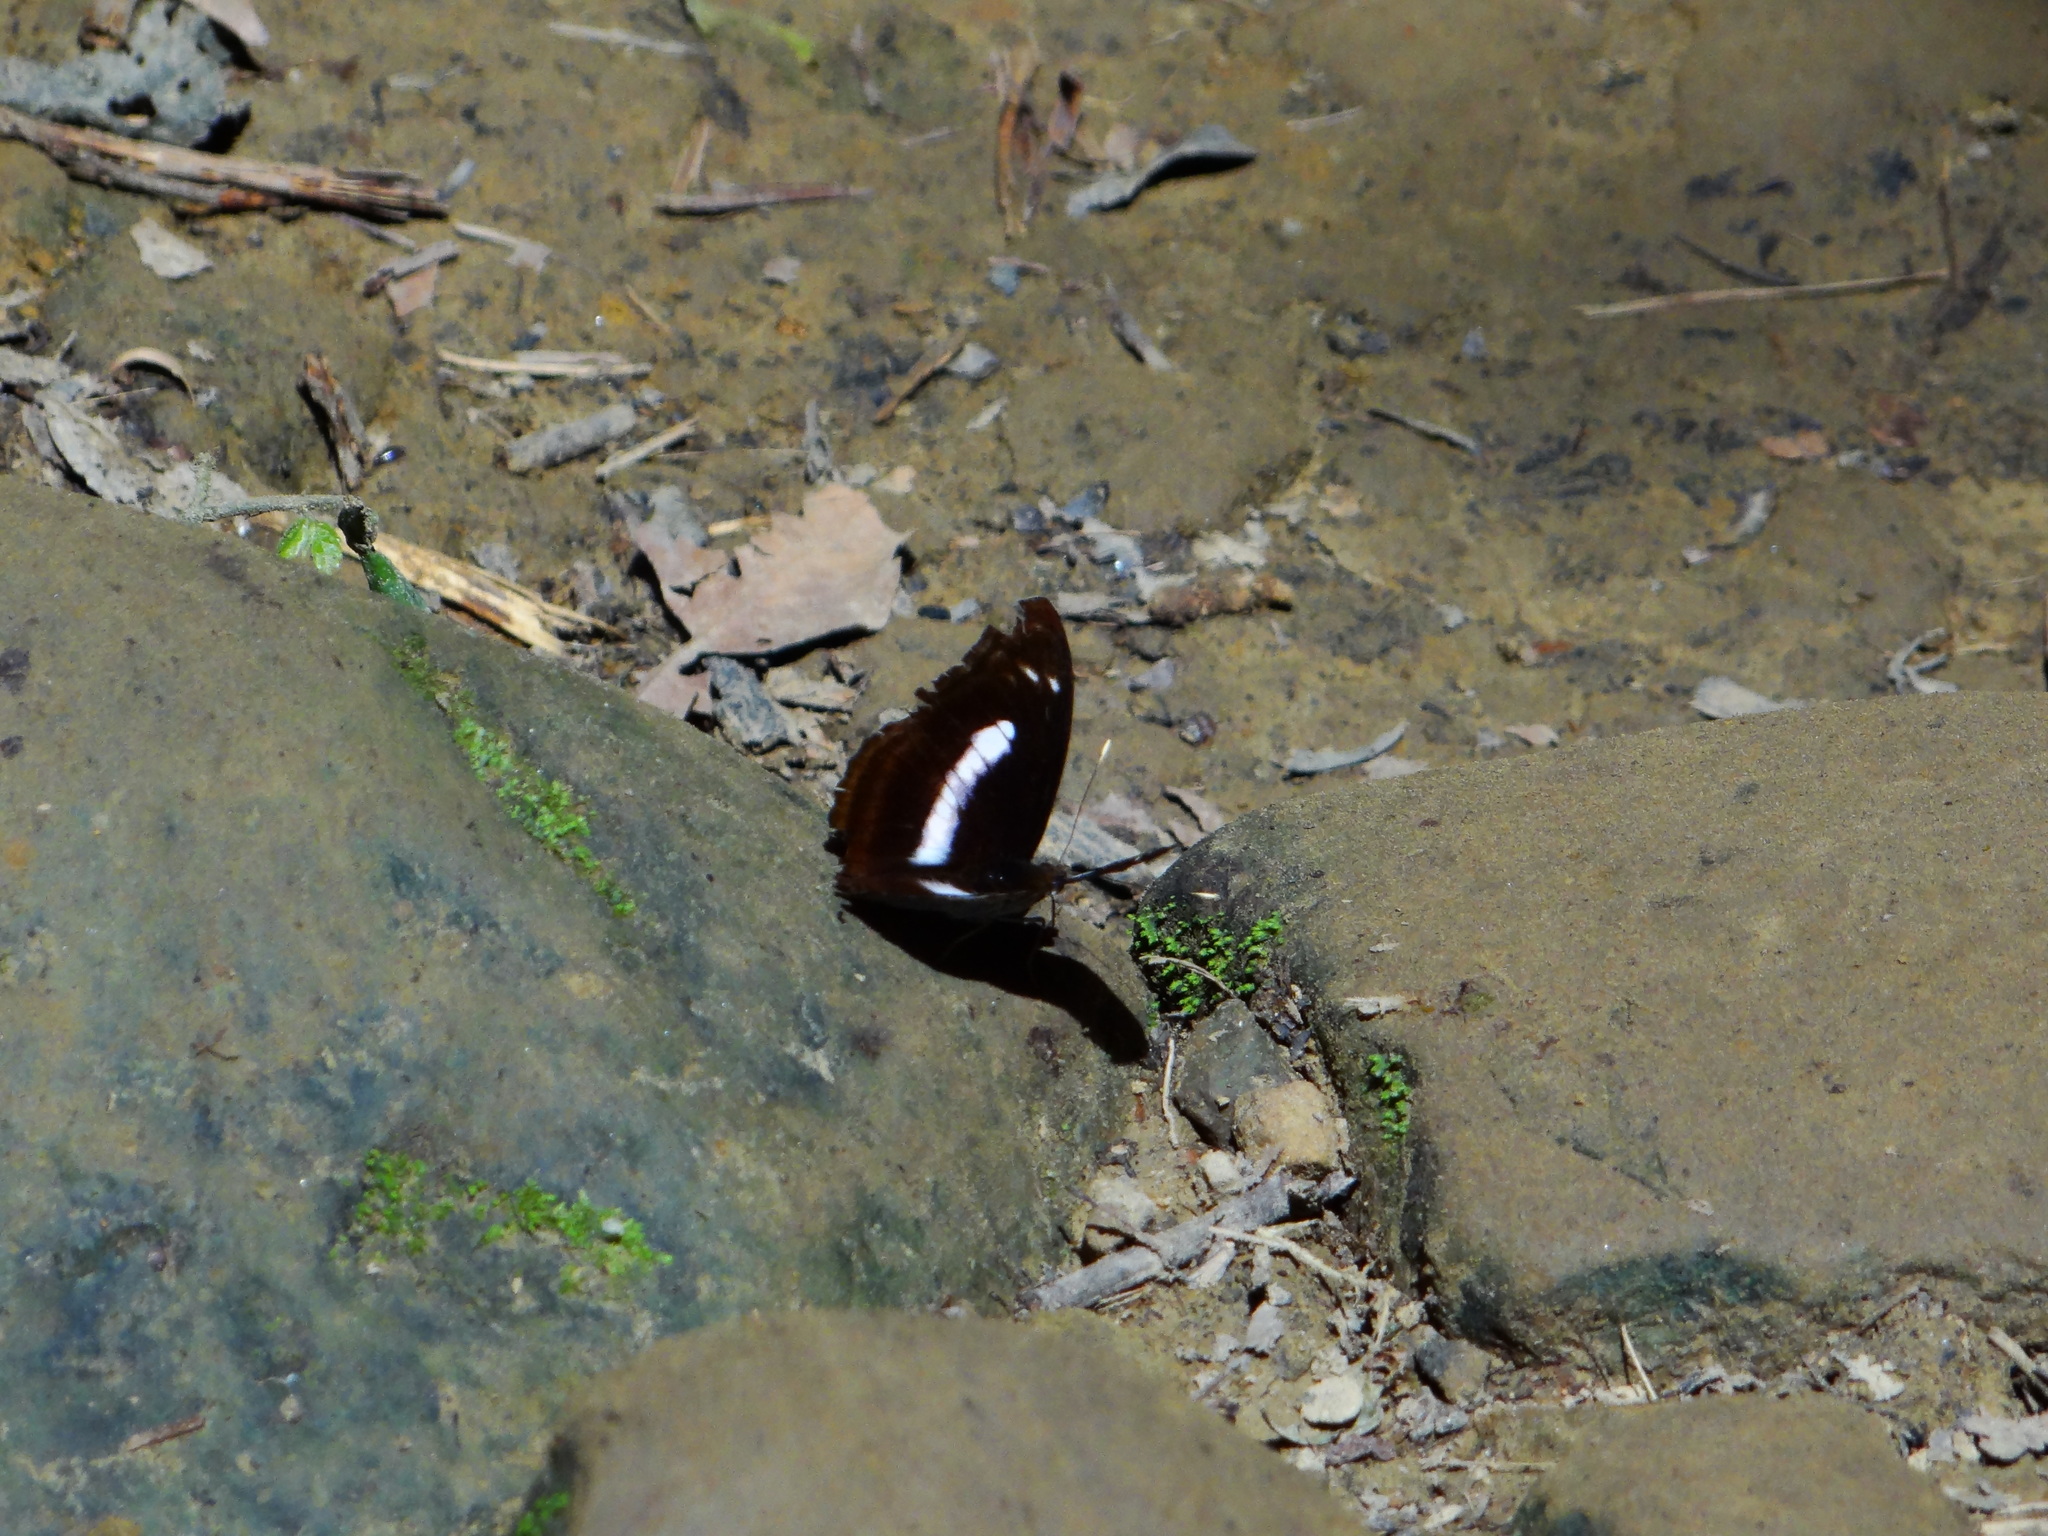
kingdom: Animalia
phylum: Arthropoda
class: Insecta
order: Lepidoptera
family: Nymphalidae
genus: Parathyma
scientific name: Parathyma selenophora
